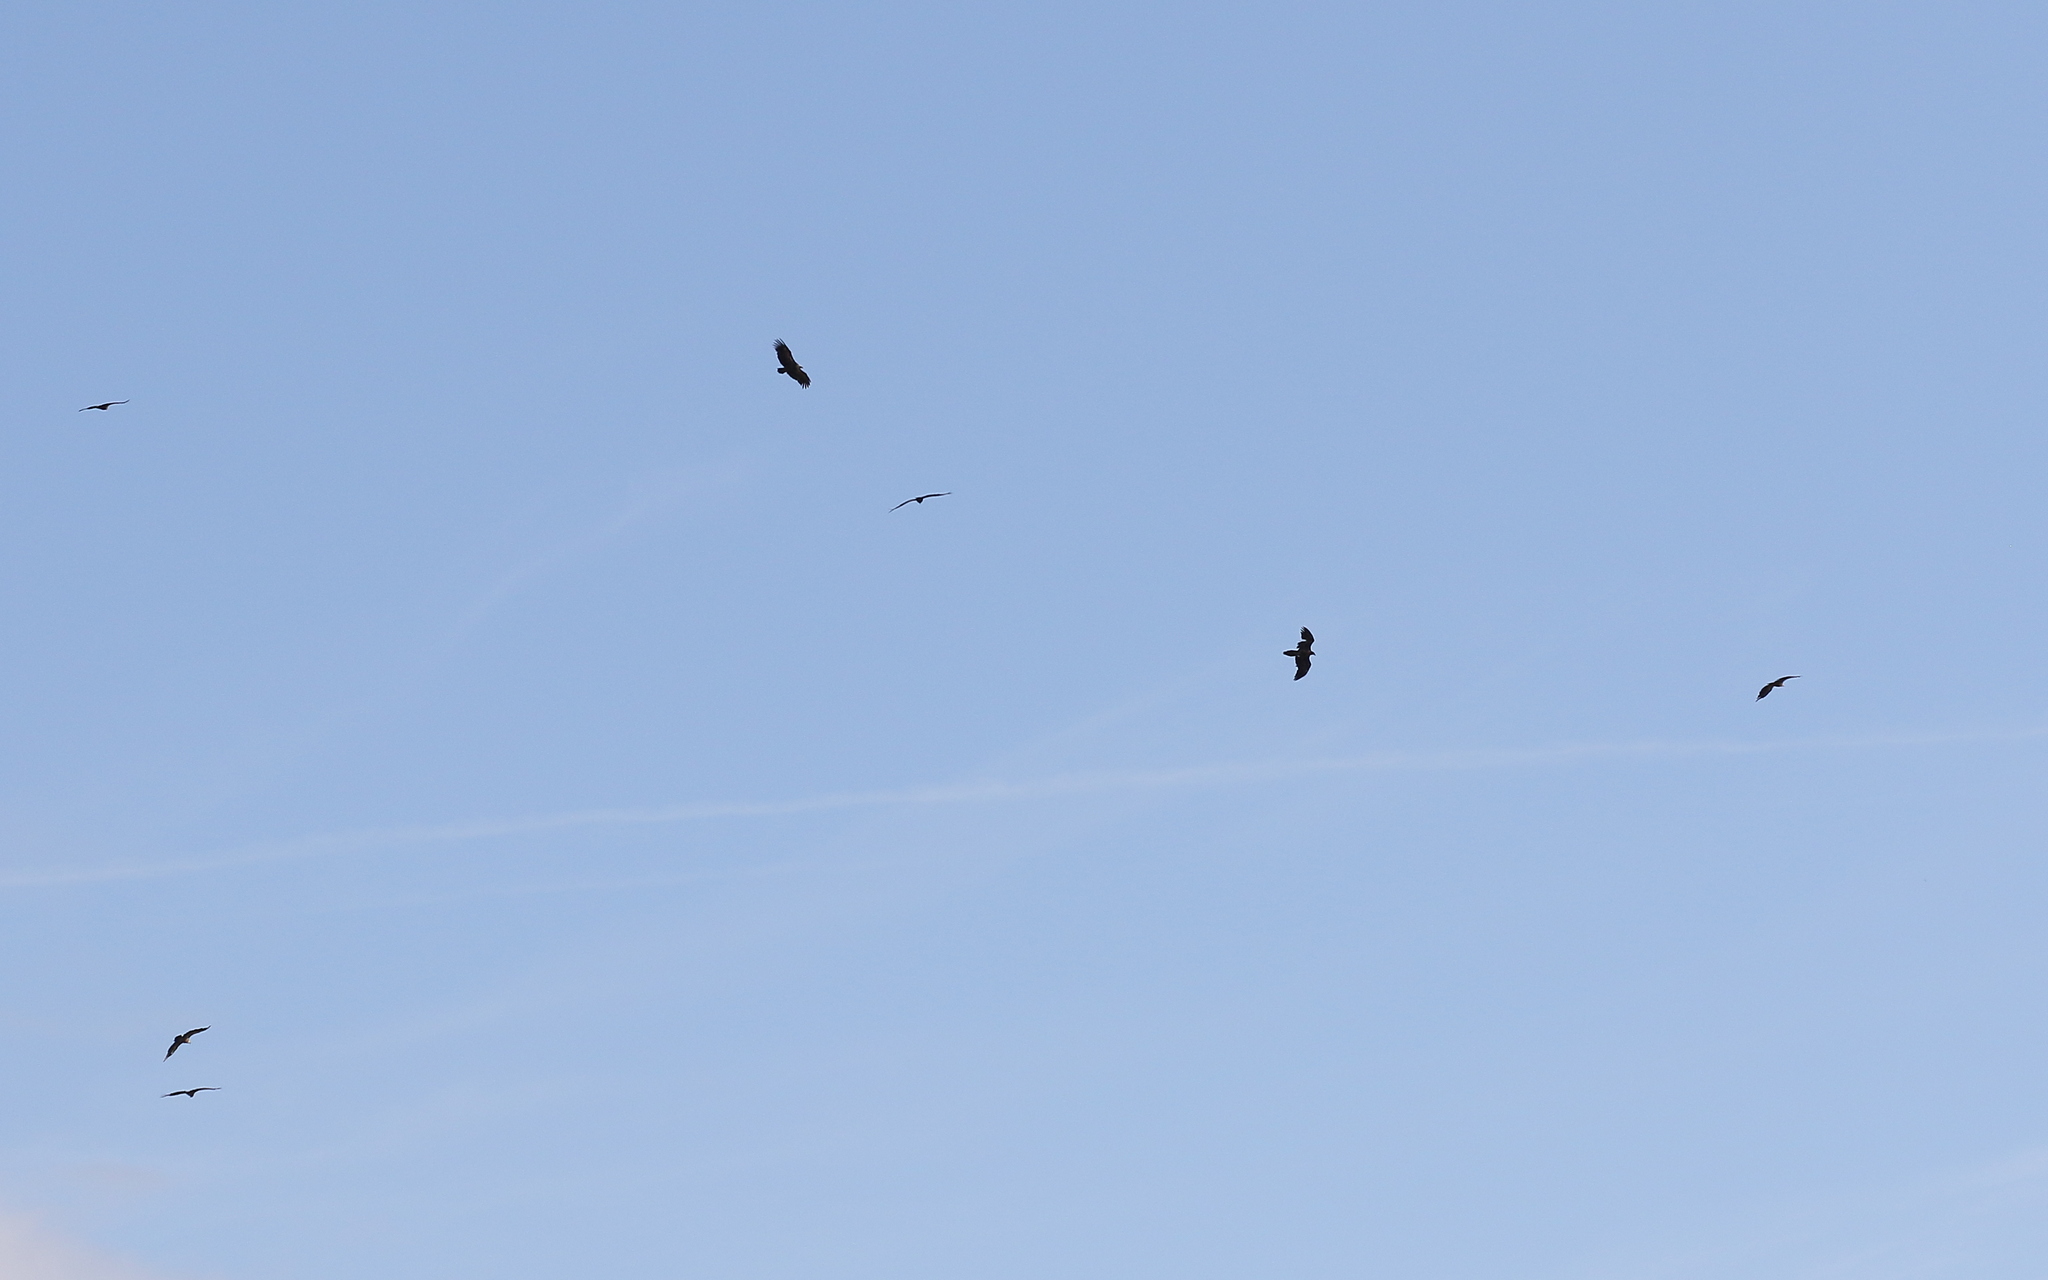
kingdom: Animalia
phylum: Chordata
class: Aves
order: Accipitriformes
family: Accipitridae
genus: Gypaetus
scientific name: Gypaetus barbatus
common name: Bearded vulture
